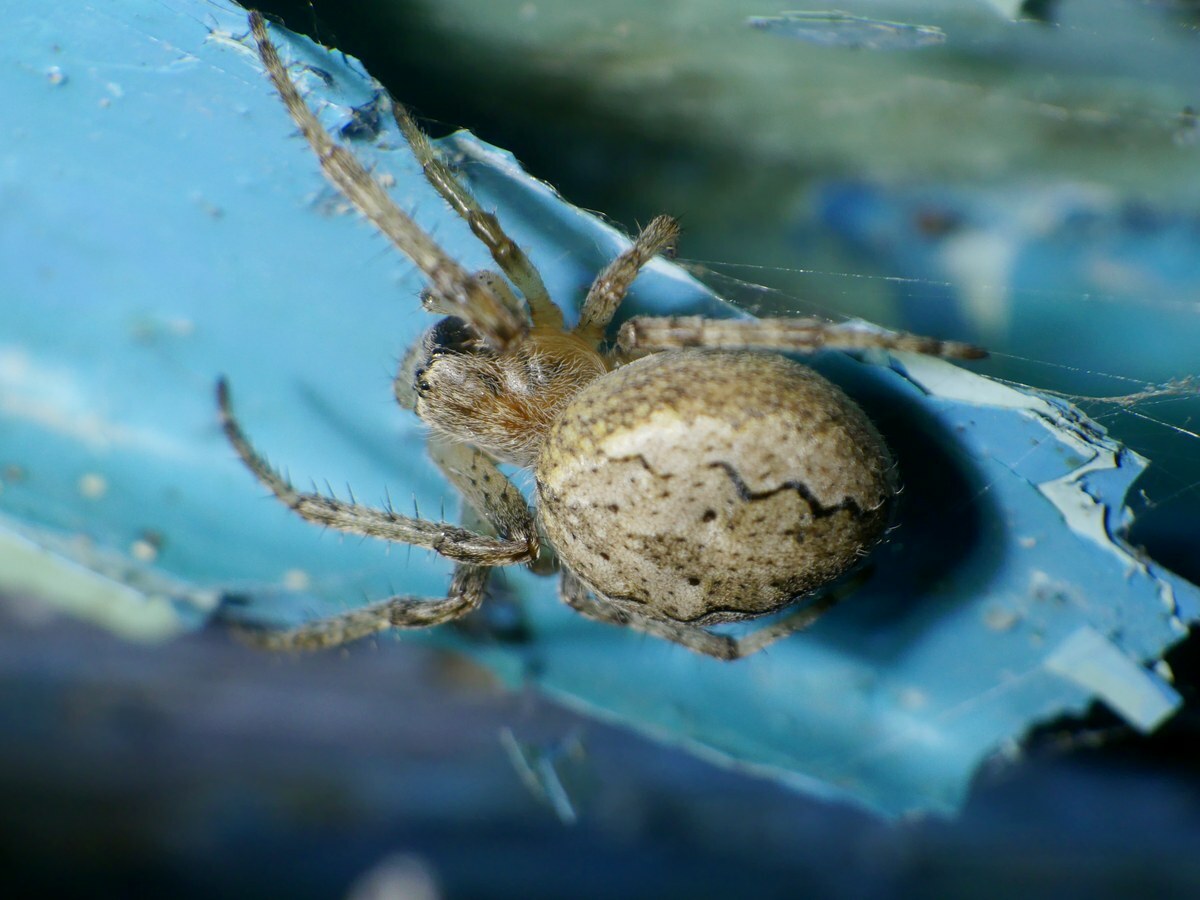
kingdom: Animalia
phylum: Arthropoda
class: Arachnida
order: Araneae
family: Araneidae
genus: Larinioides
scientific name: Larinioides ixobolus
